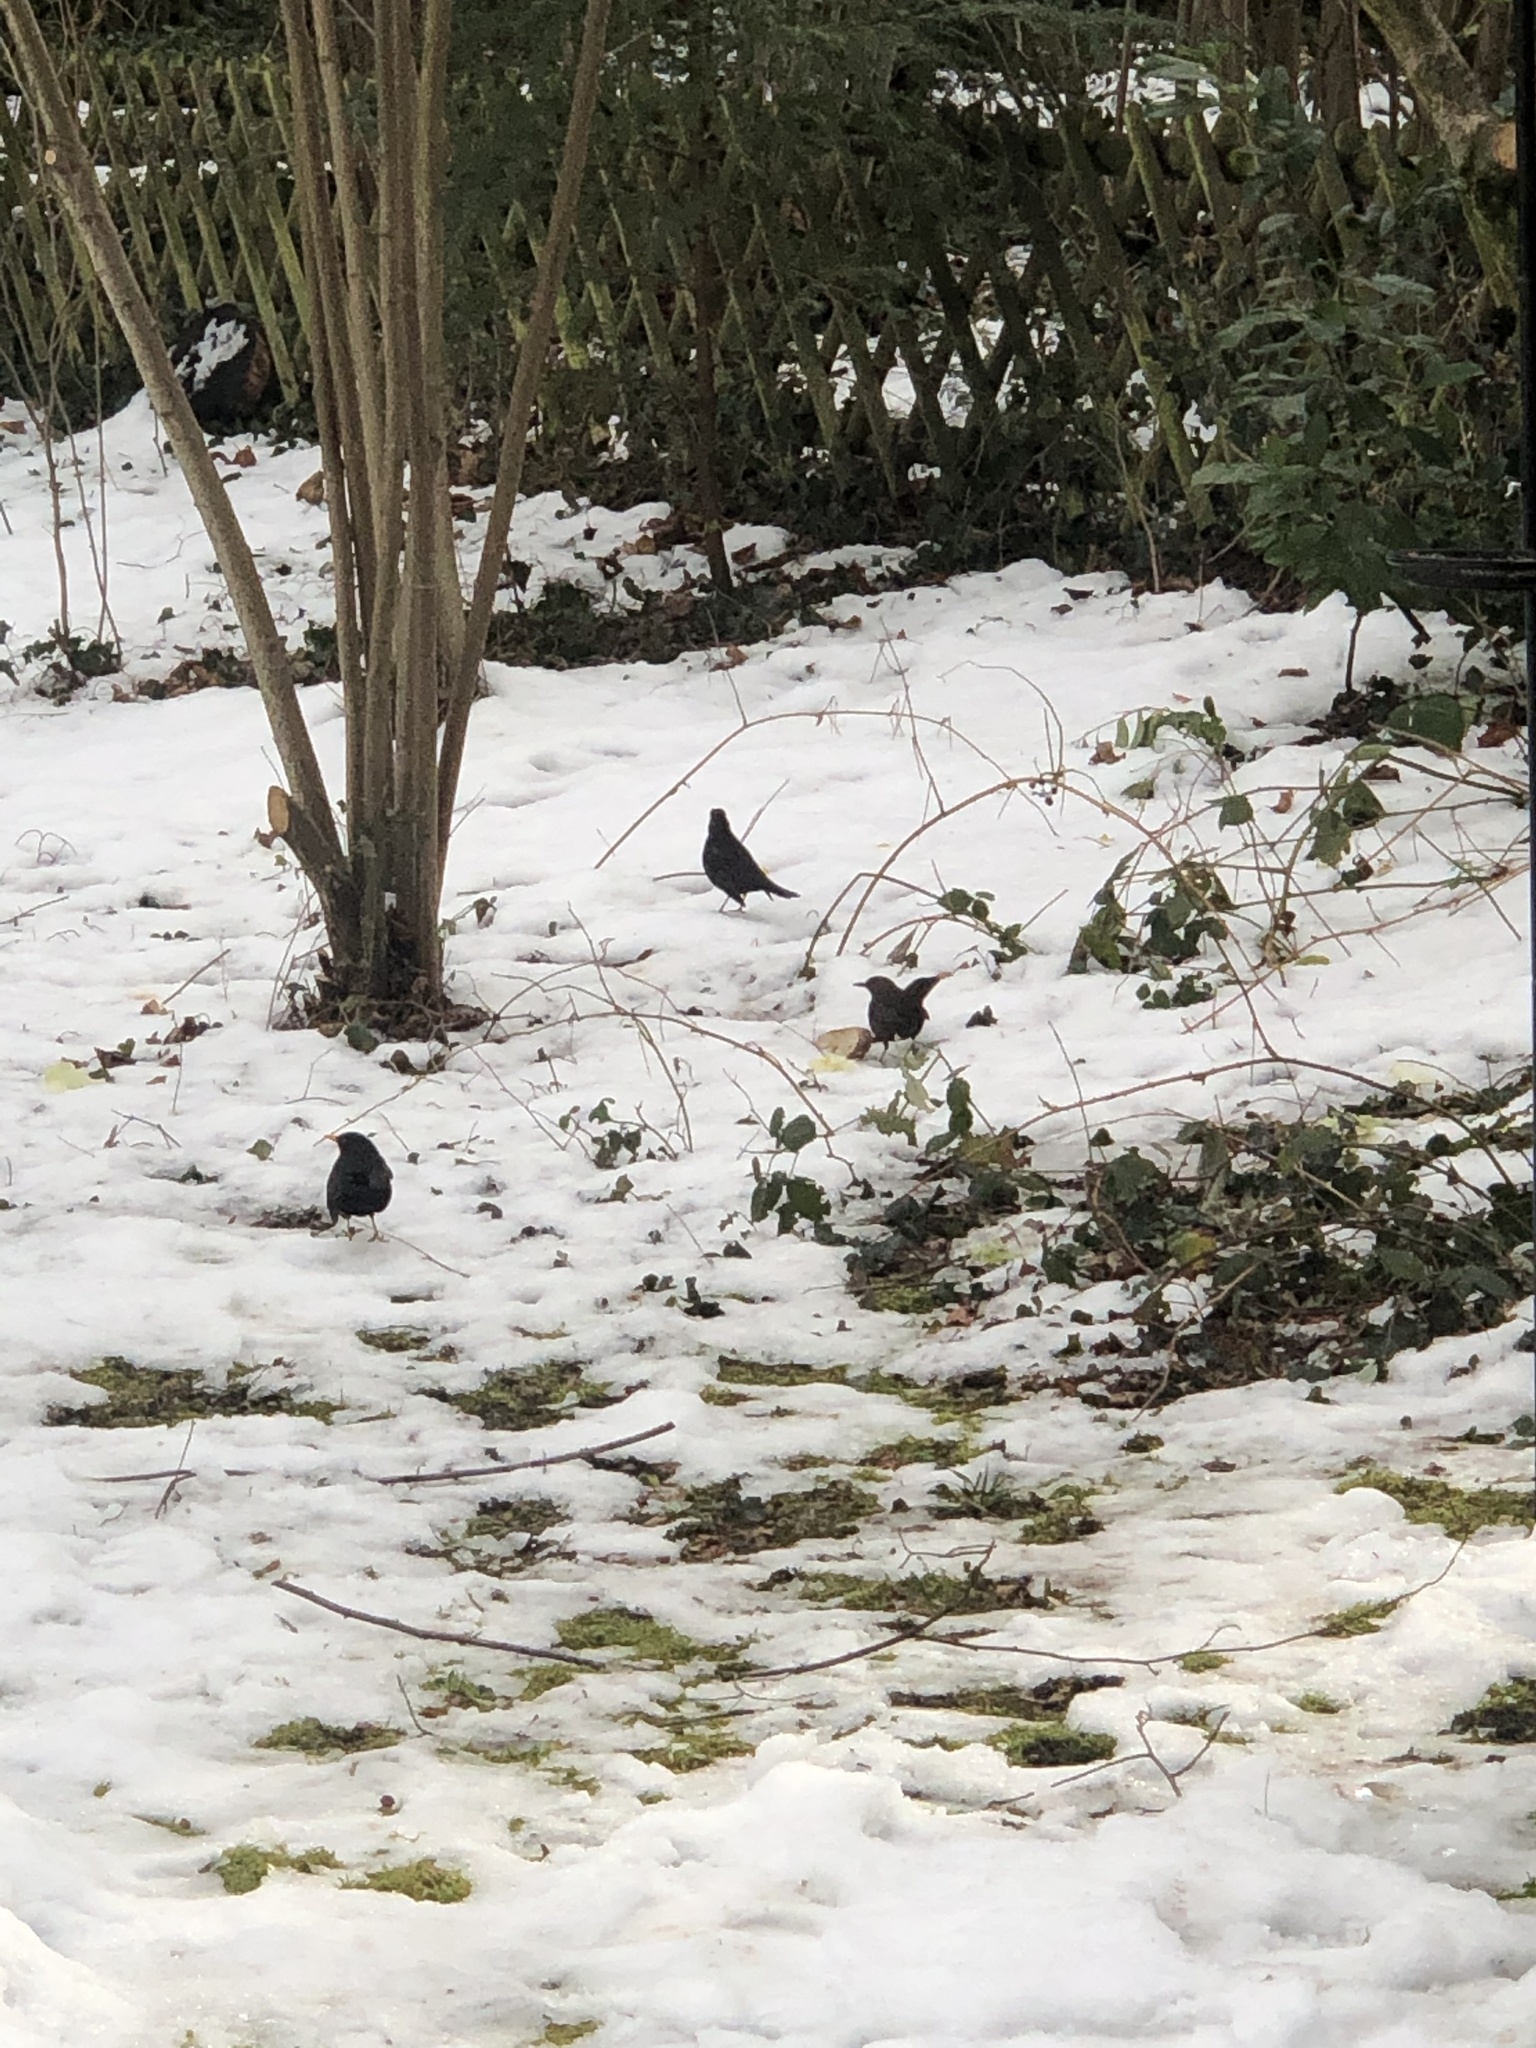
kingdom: Animalia
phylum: Chordata
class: Aves
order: Passeriformes
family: Turdidae
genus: Turdus
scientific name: Turdus merula
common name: Common blackbird
